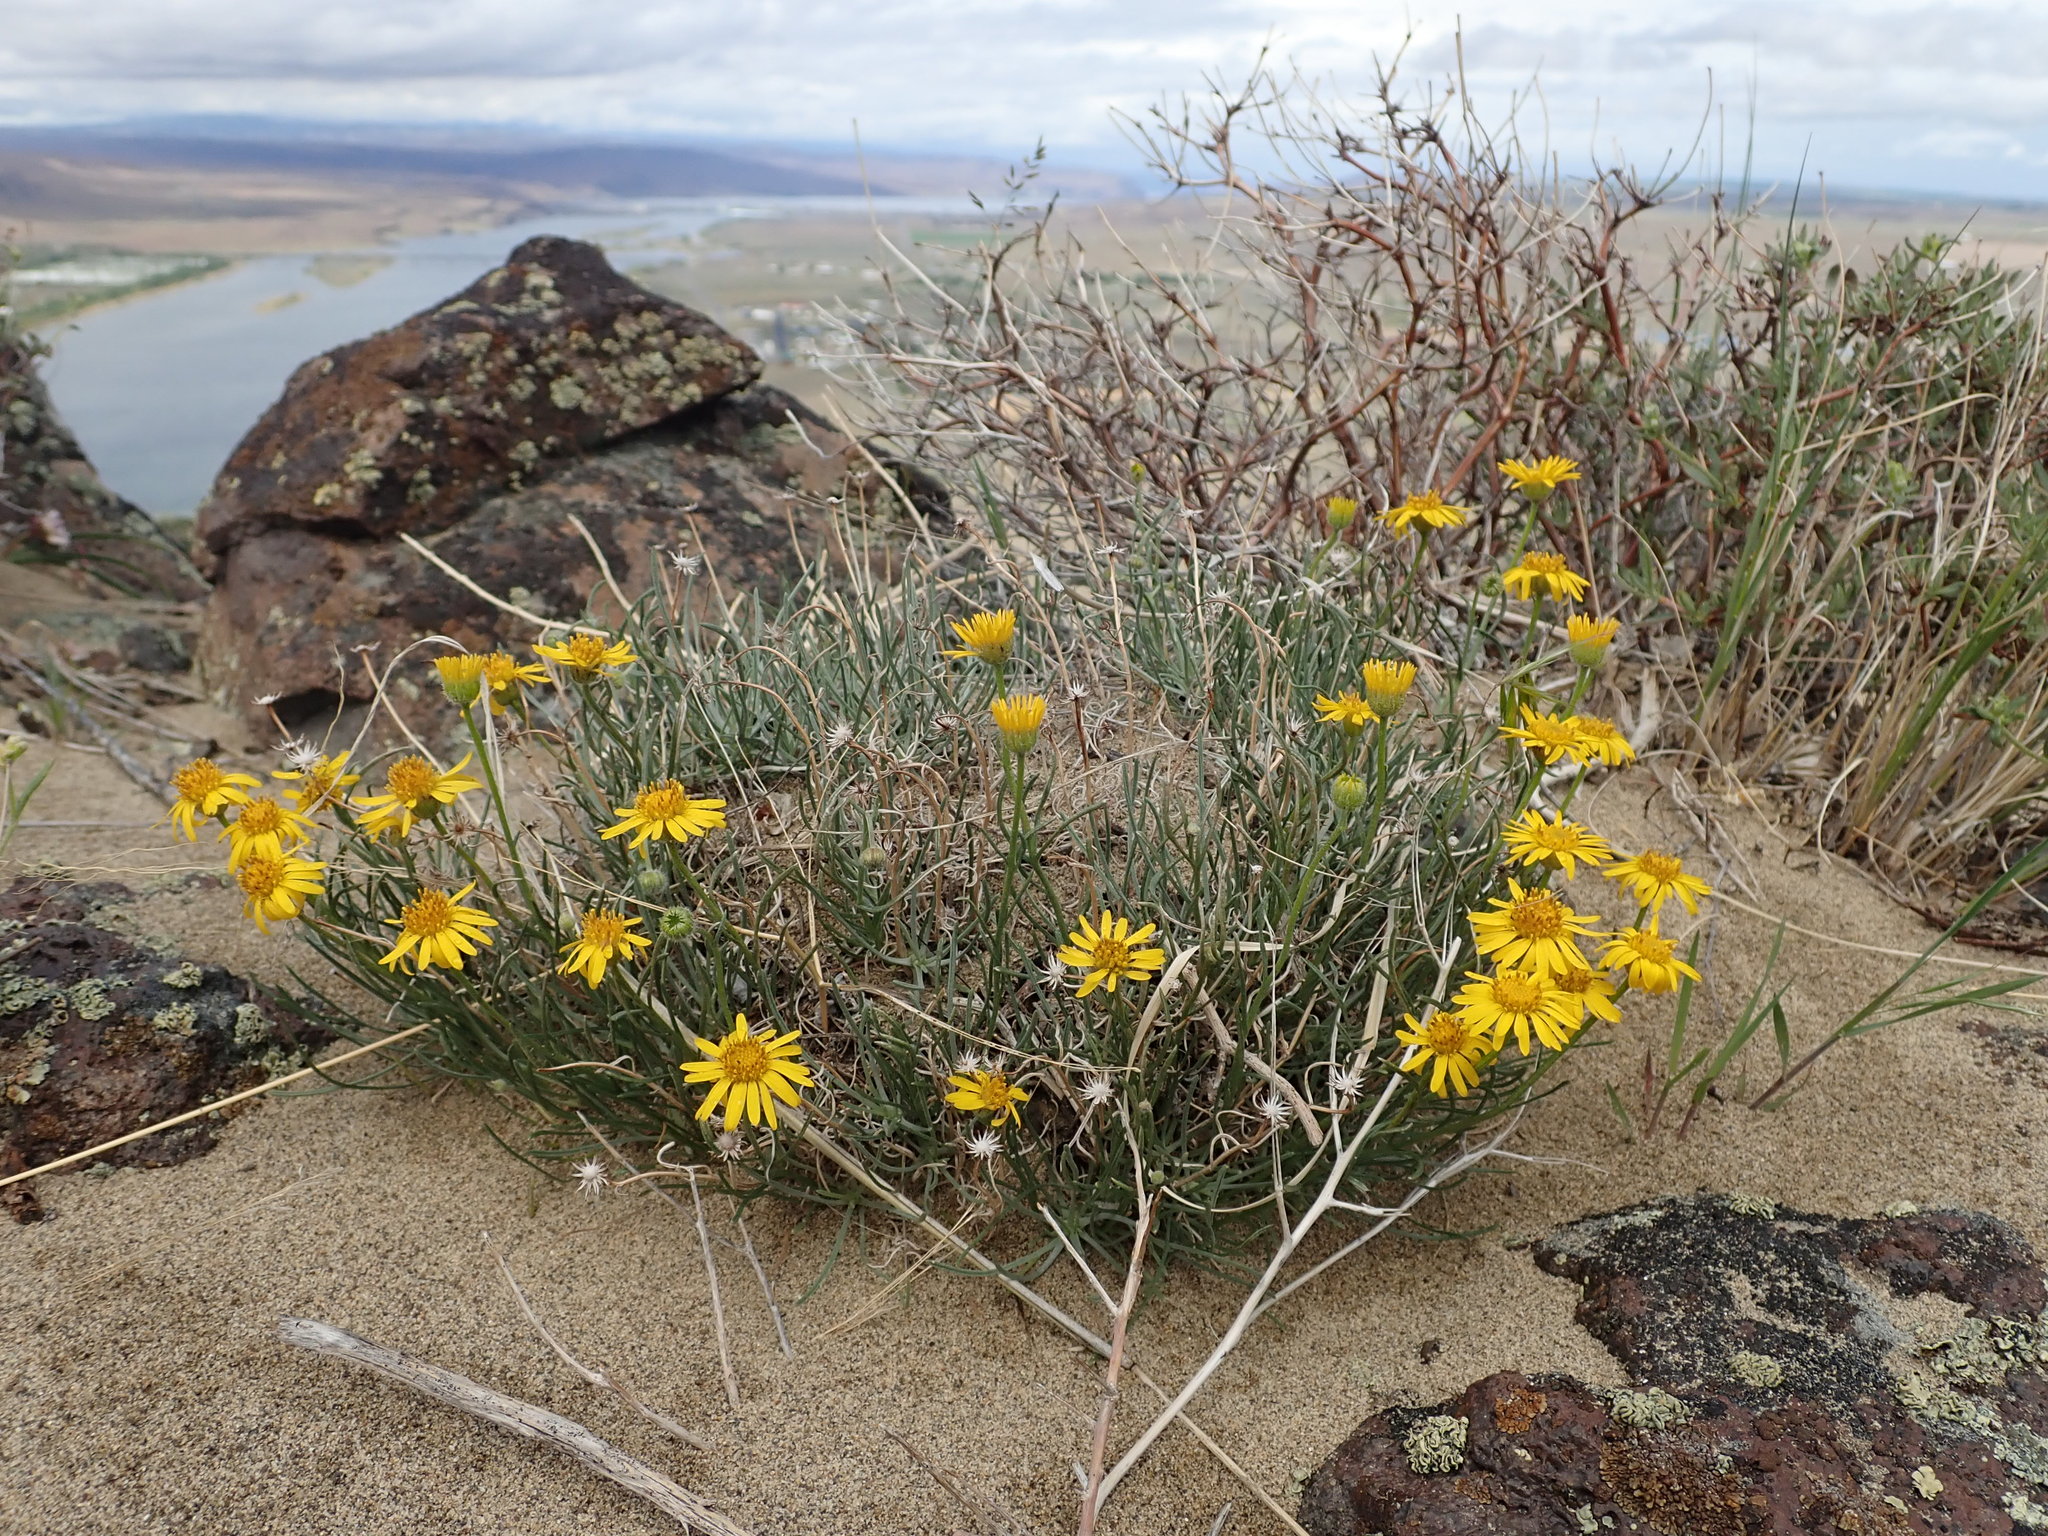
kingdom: Plantae
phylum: Tracheophyta
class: Magnoliopsida
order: Asterales
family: Asteraceae
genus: Erigeron
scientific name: Erigeron linearis
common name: Desert yellow fleabane
